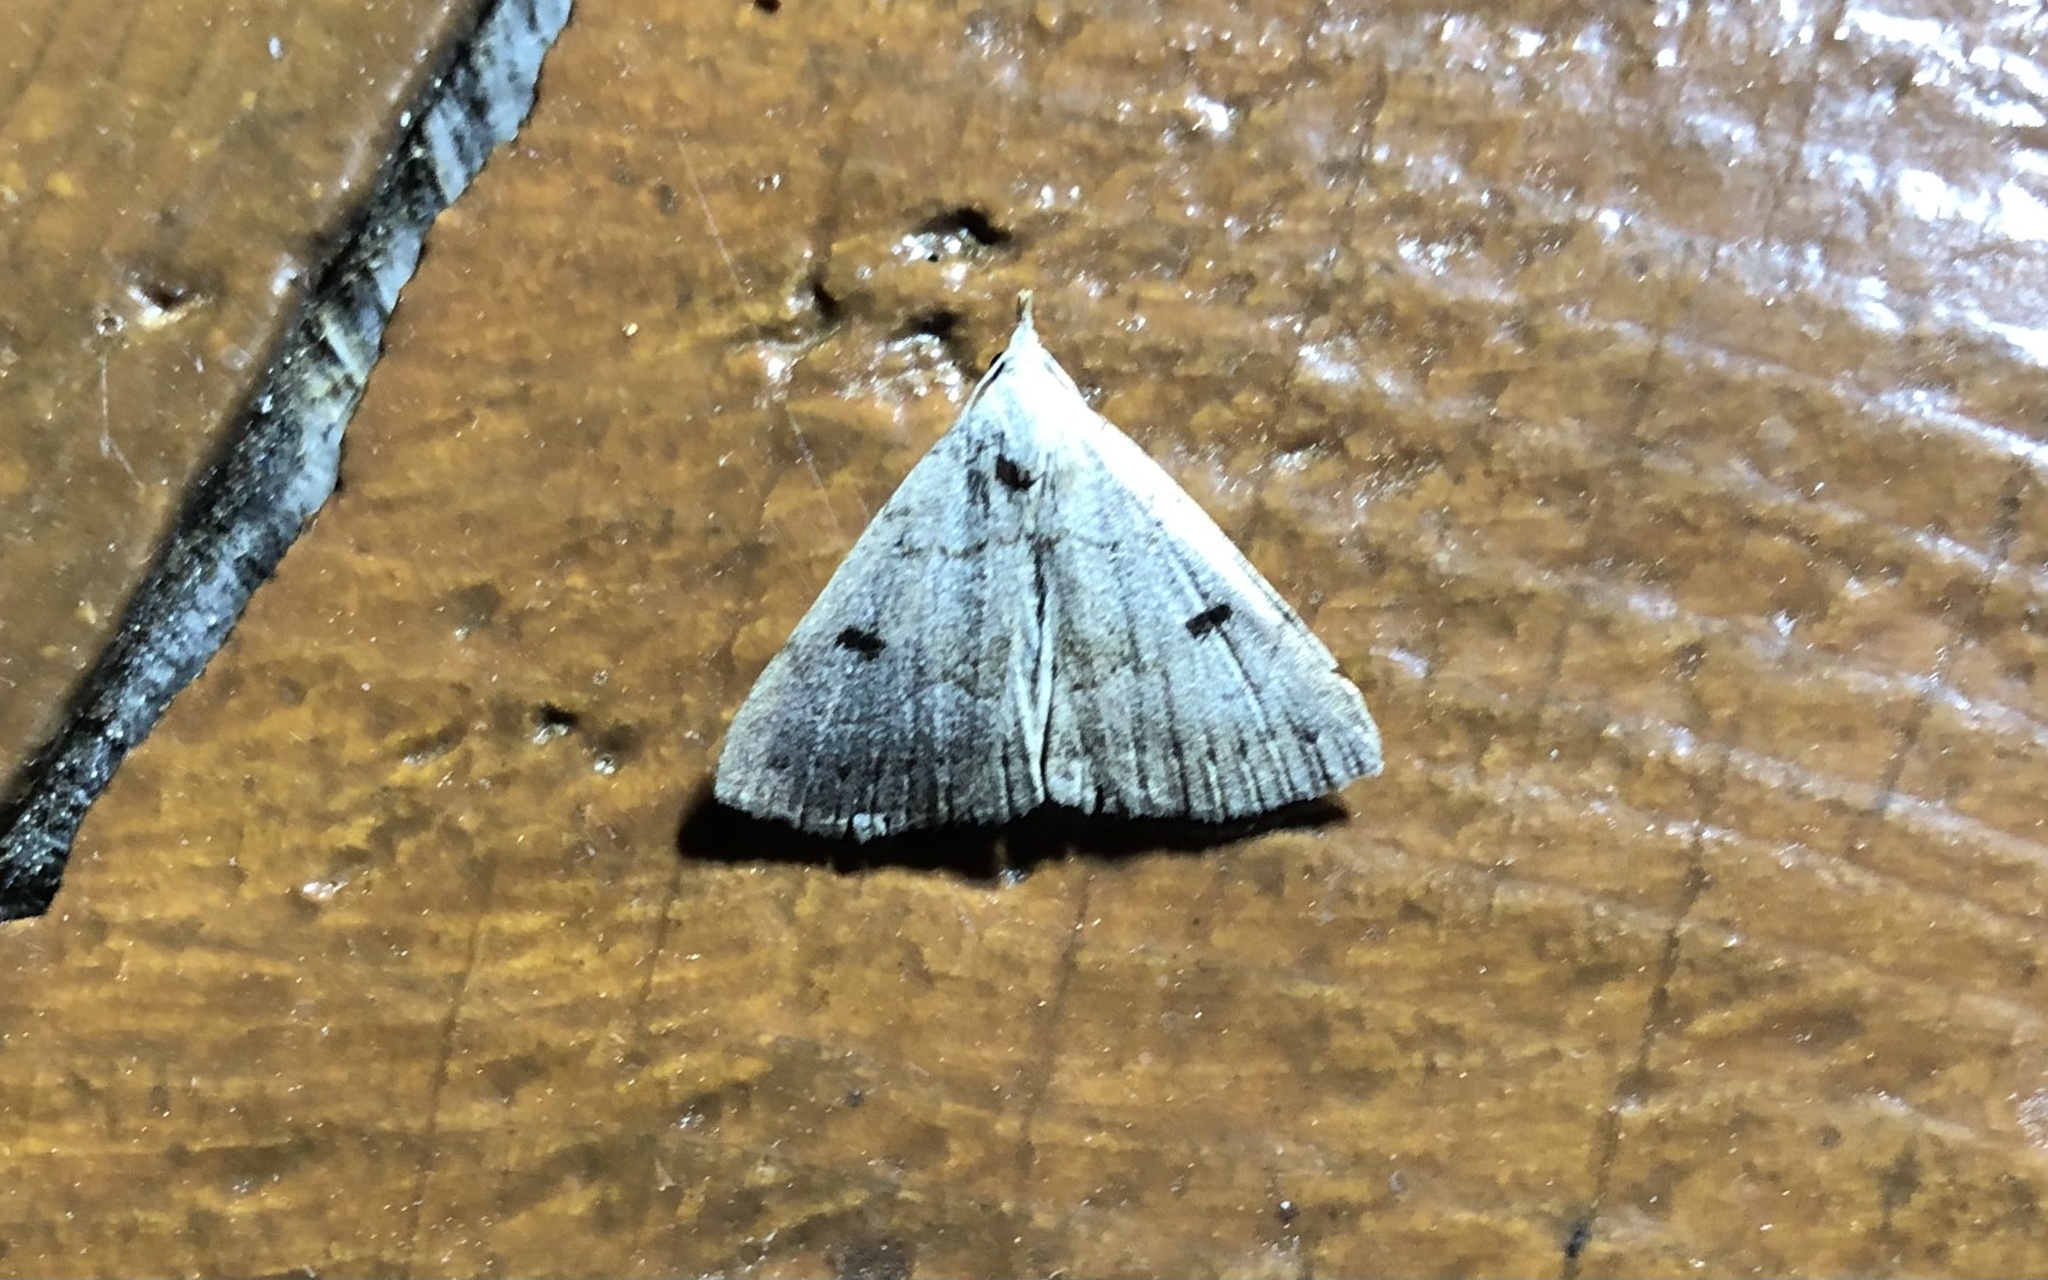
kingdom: Animalia
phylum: Arthropoda
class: Insecta
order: Lepidoptera
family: Erebidae
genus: Macrochilo
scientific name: Macrochilo morbidalis
